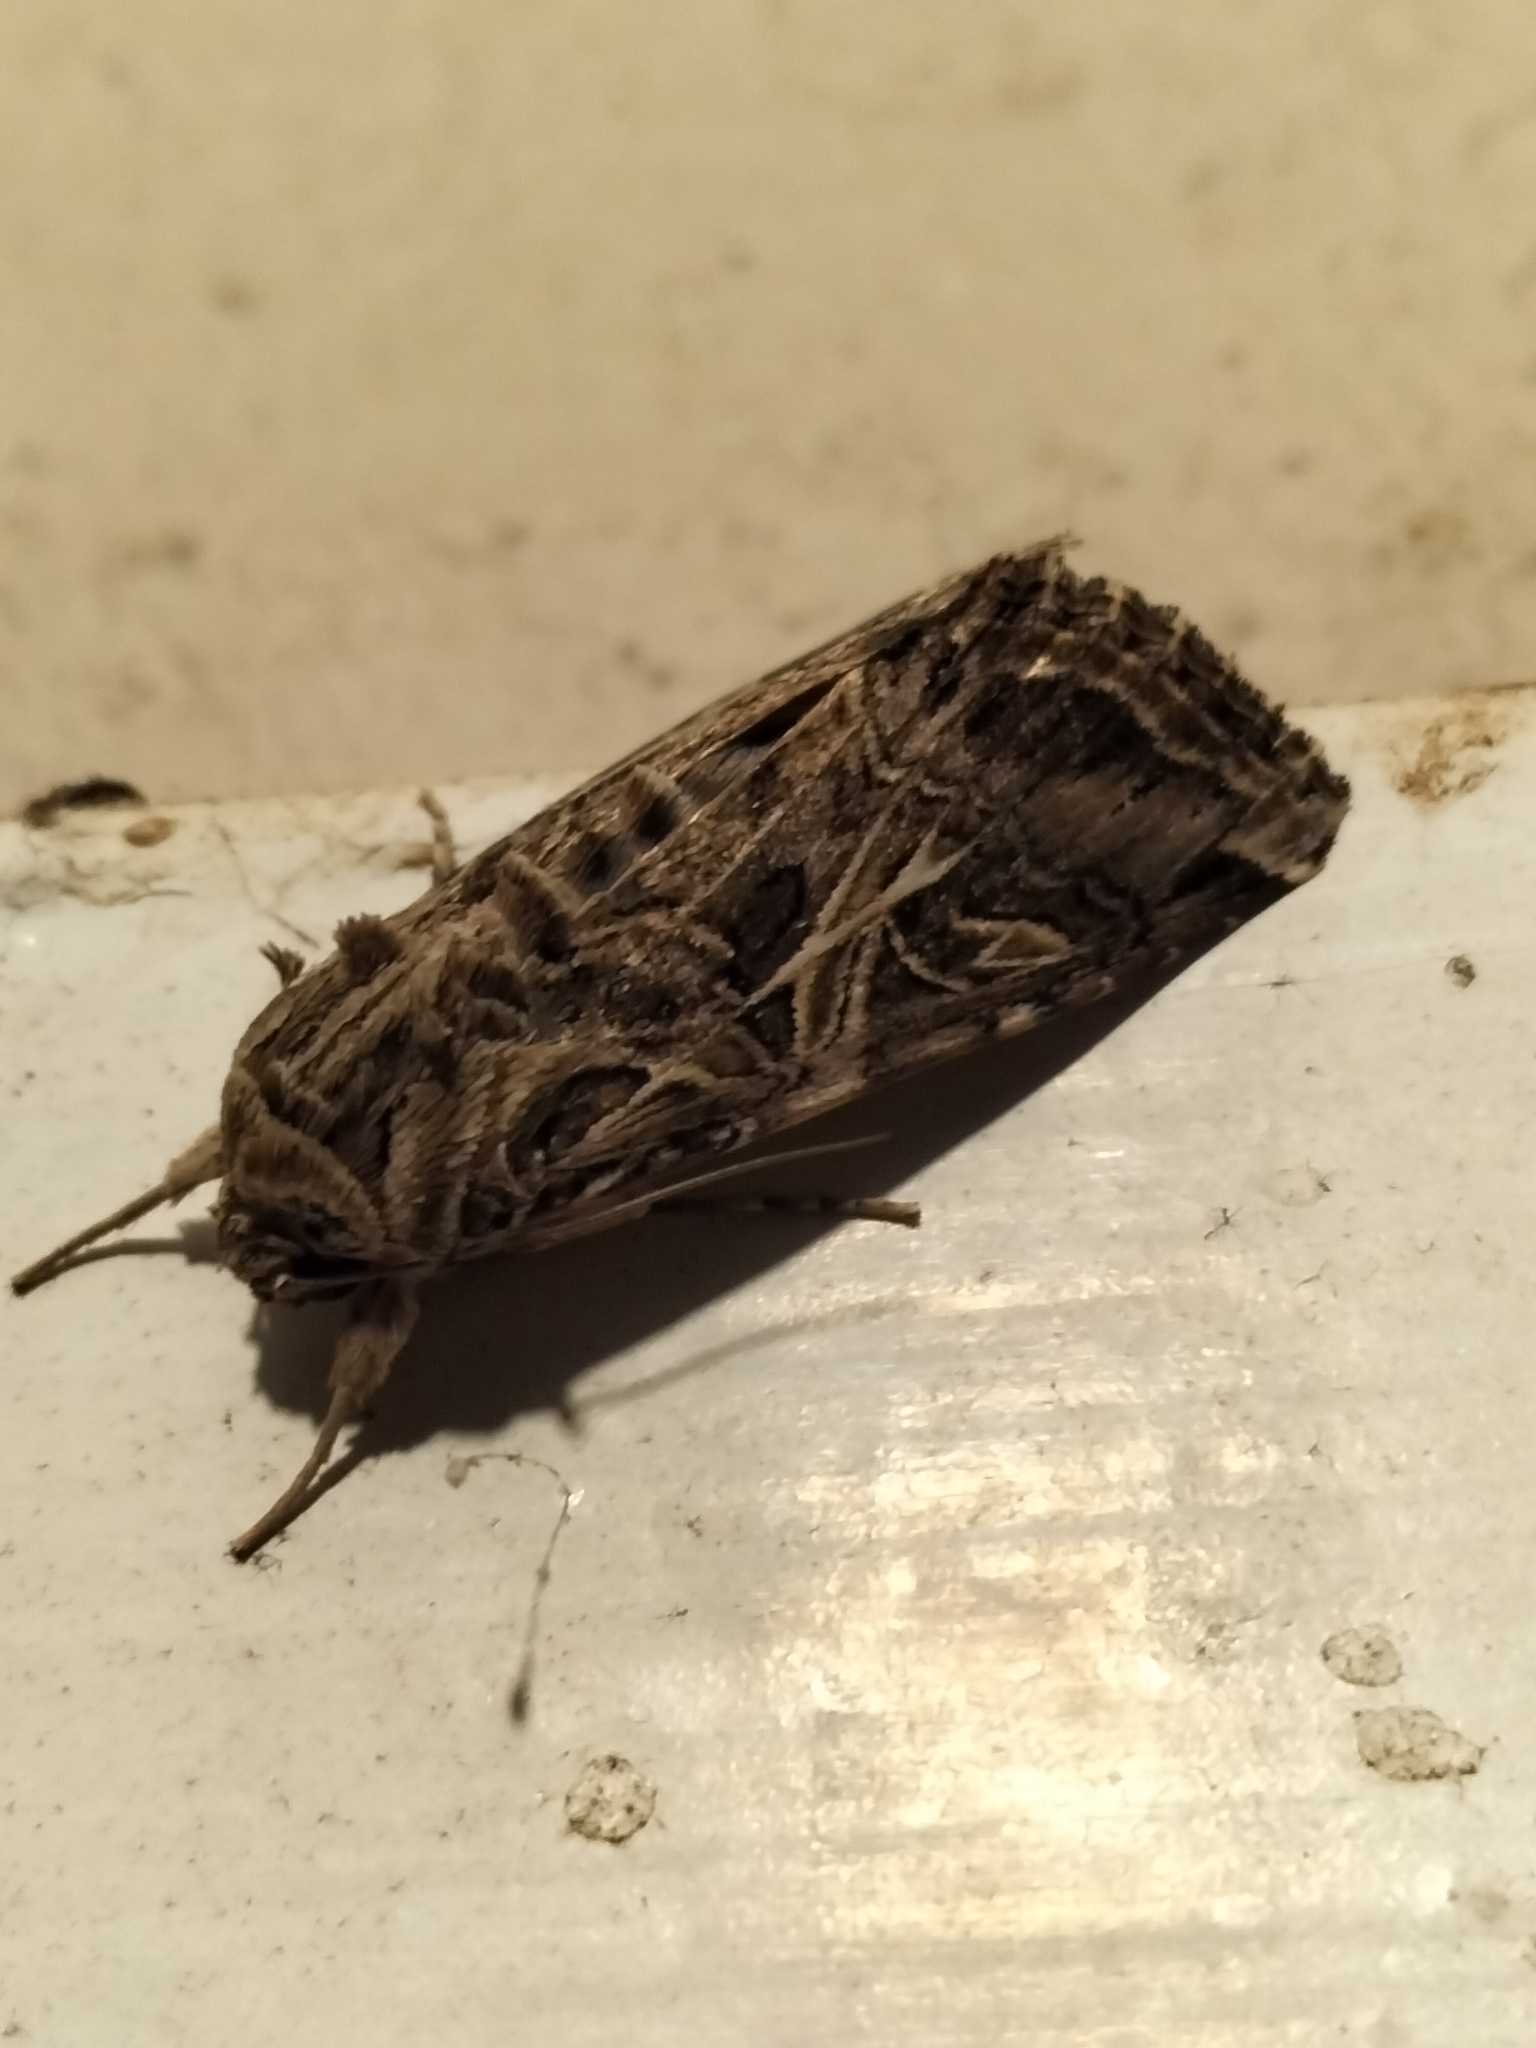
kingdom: Animalia
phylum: Arthropoda
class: Insecta
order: Lepidoptera
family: Noctuidae
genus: Spodoptera
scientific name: Spodoptera litura
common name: Asian cotton leafworm
